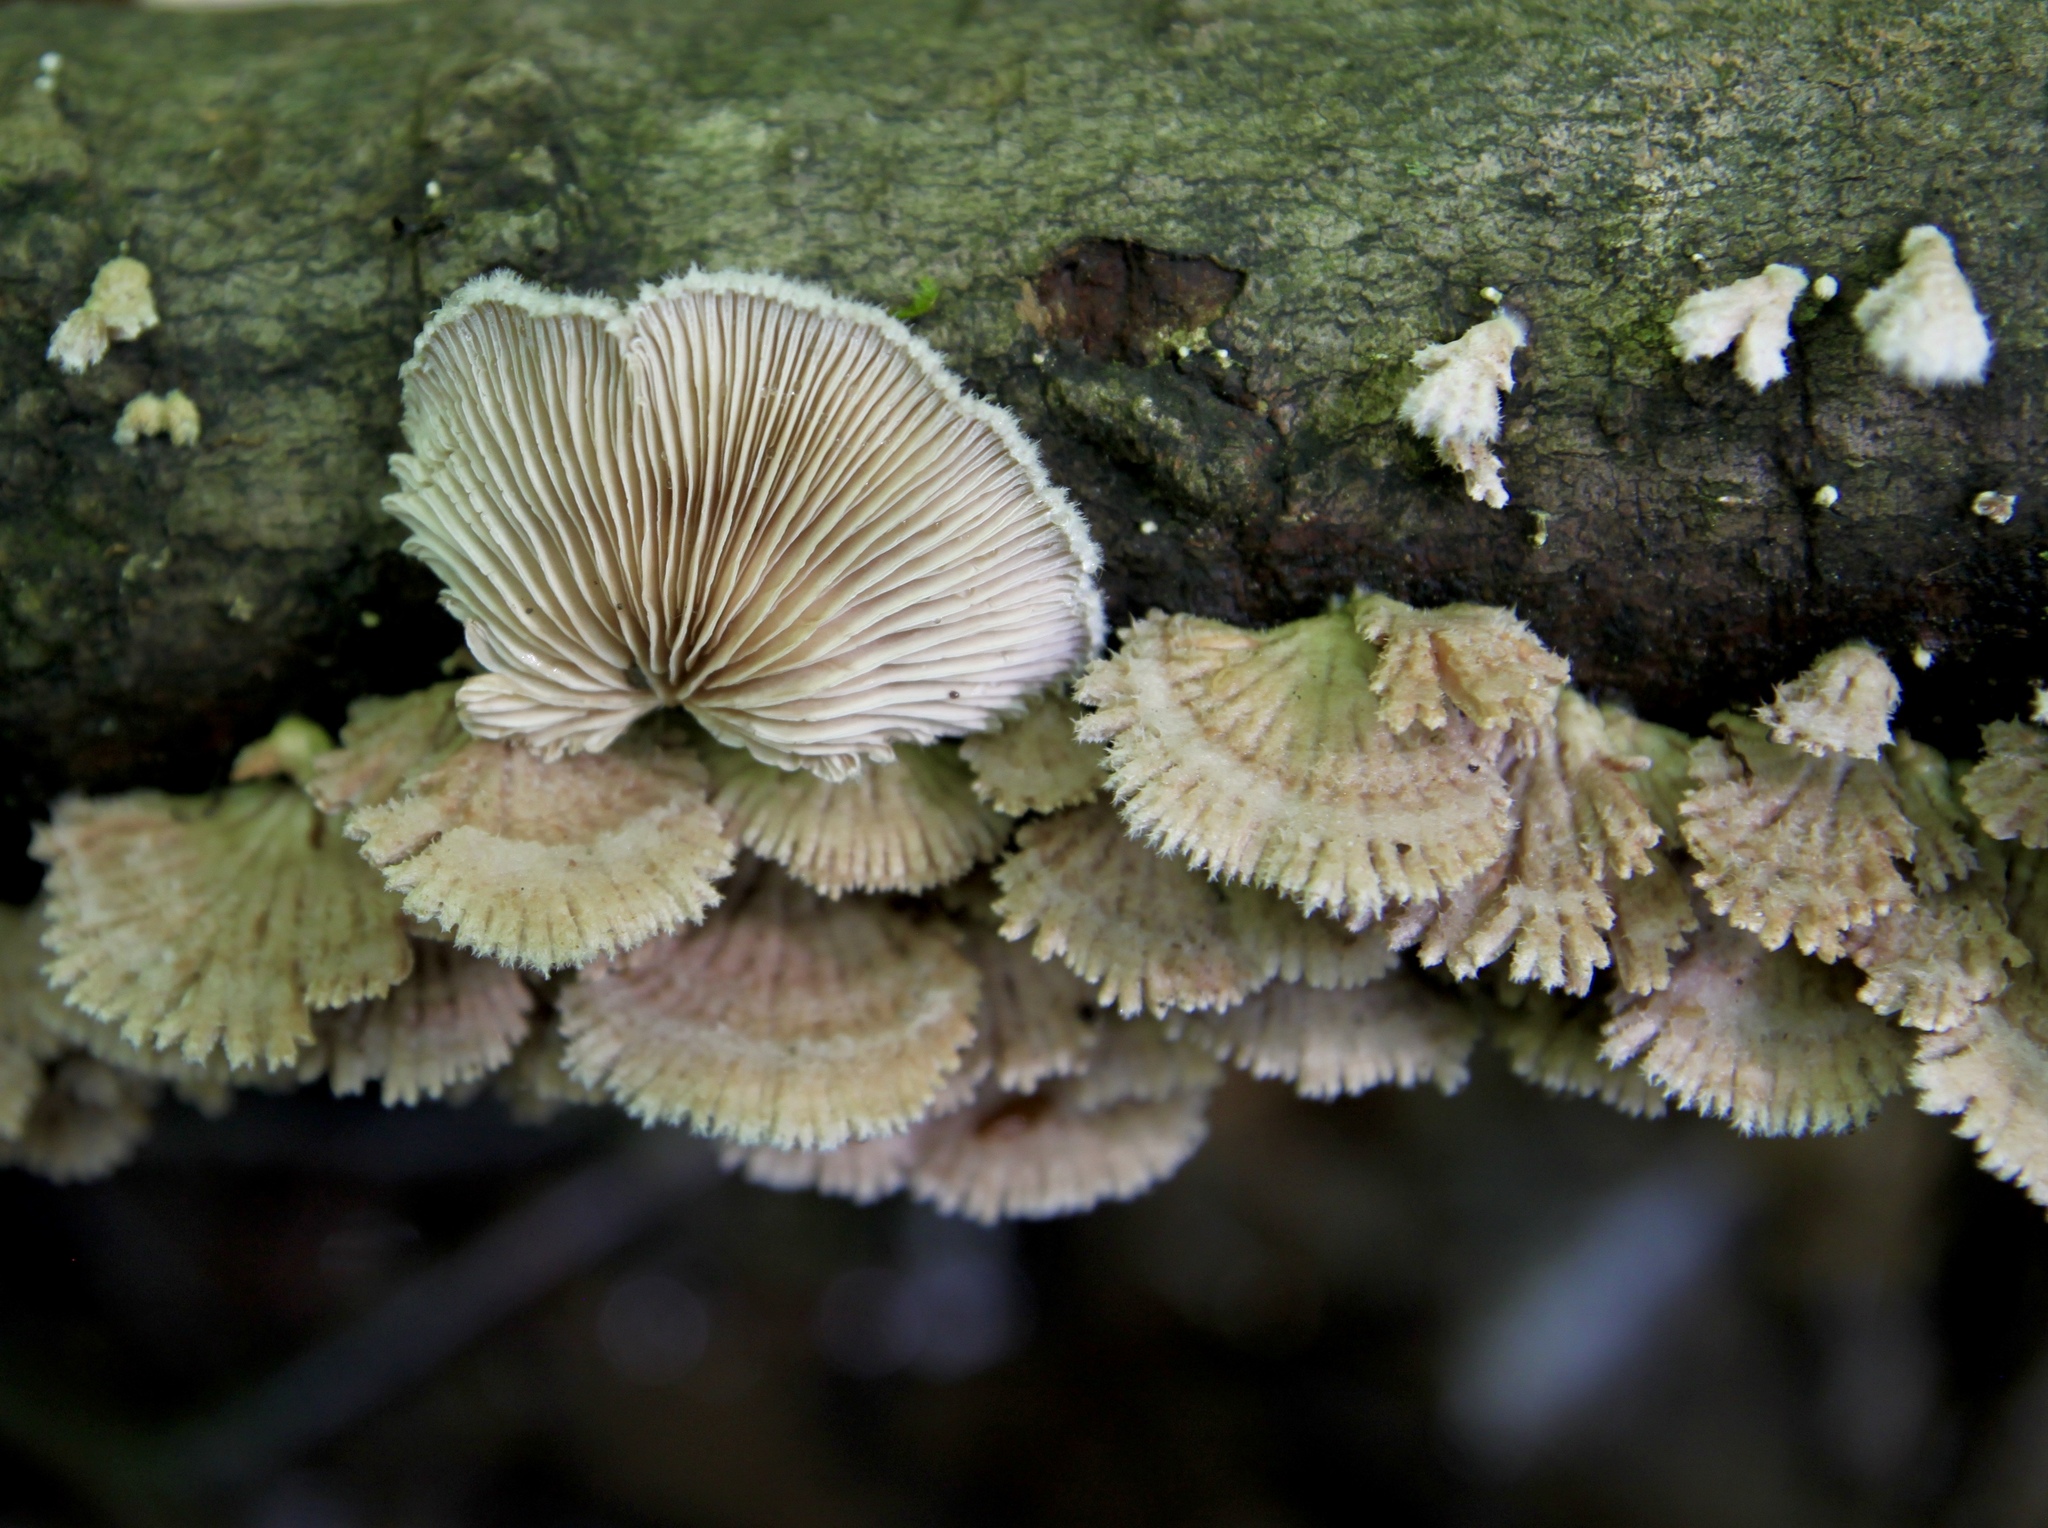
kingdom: Fungi
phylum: Basidiomycota
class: Agaricomycetes
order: Agaricales
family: Schizophyllaceae
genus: Schizophyllum
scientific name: Schizophyllum commune
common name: Common porecrust
